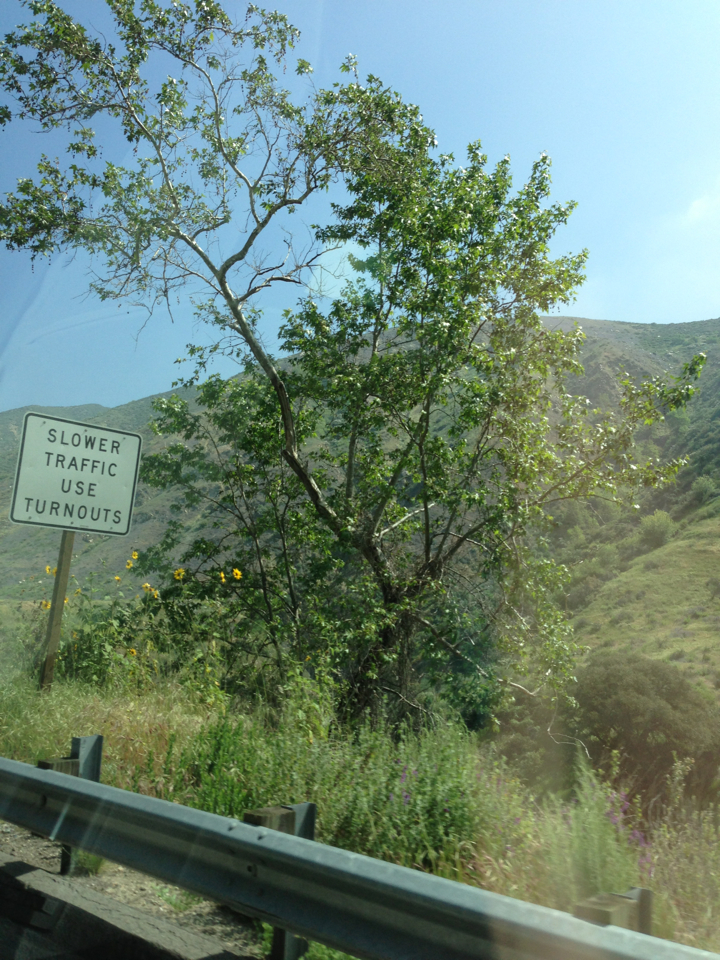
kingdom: Plantae
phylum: Tracheophyta
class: Magnoliopsida
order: Proteales
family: Platanaceae
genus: Platanus
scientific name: Platanus racemosa
